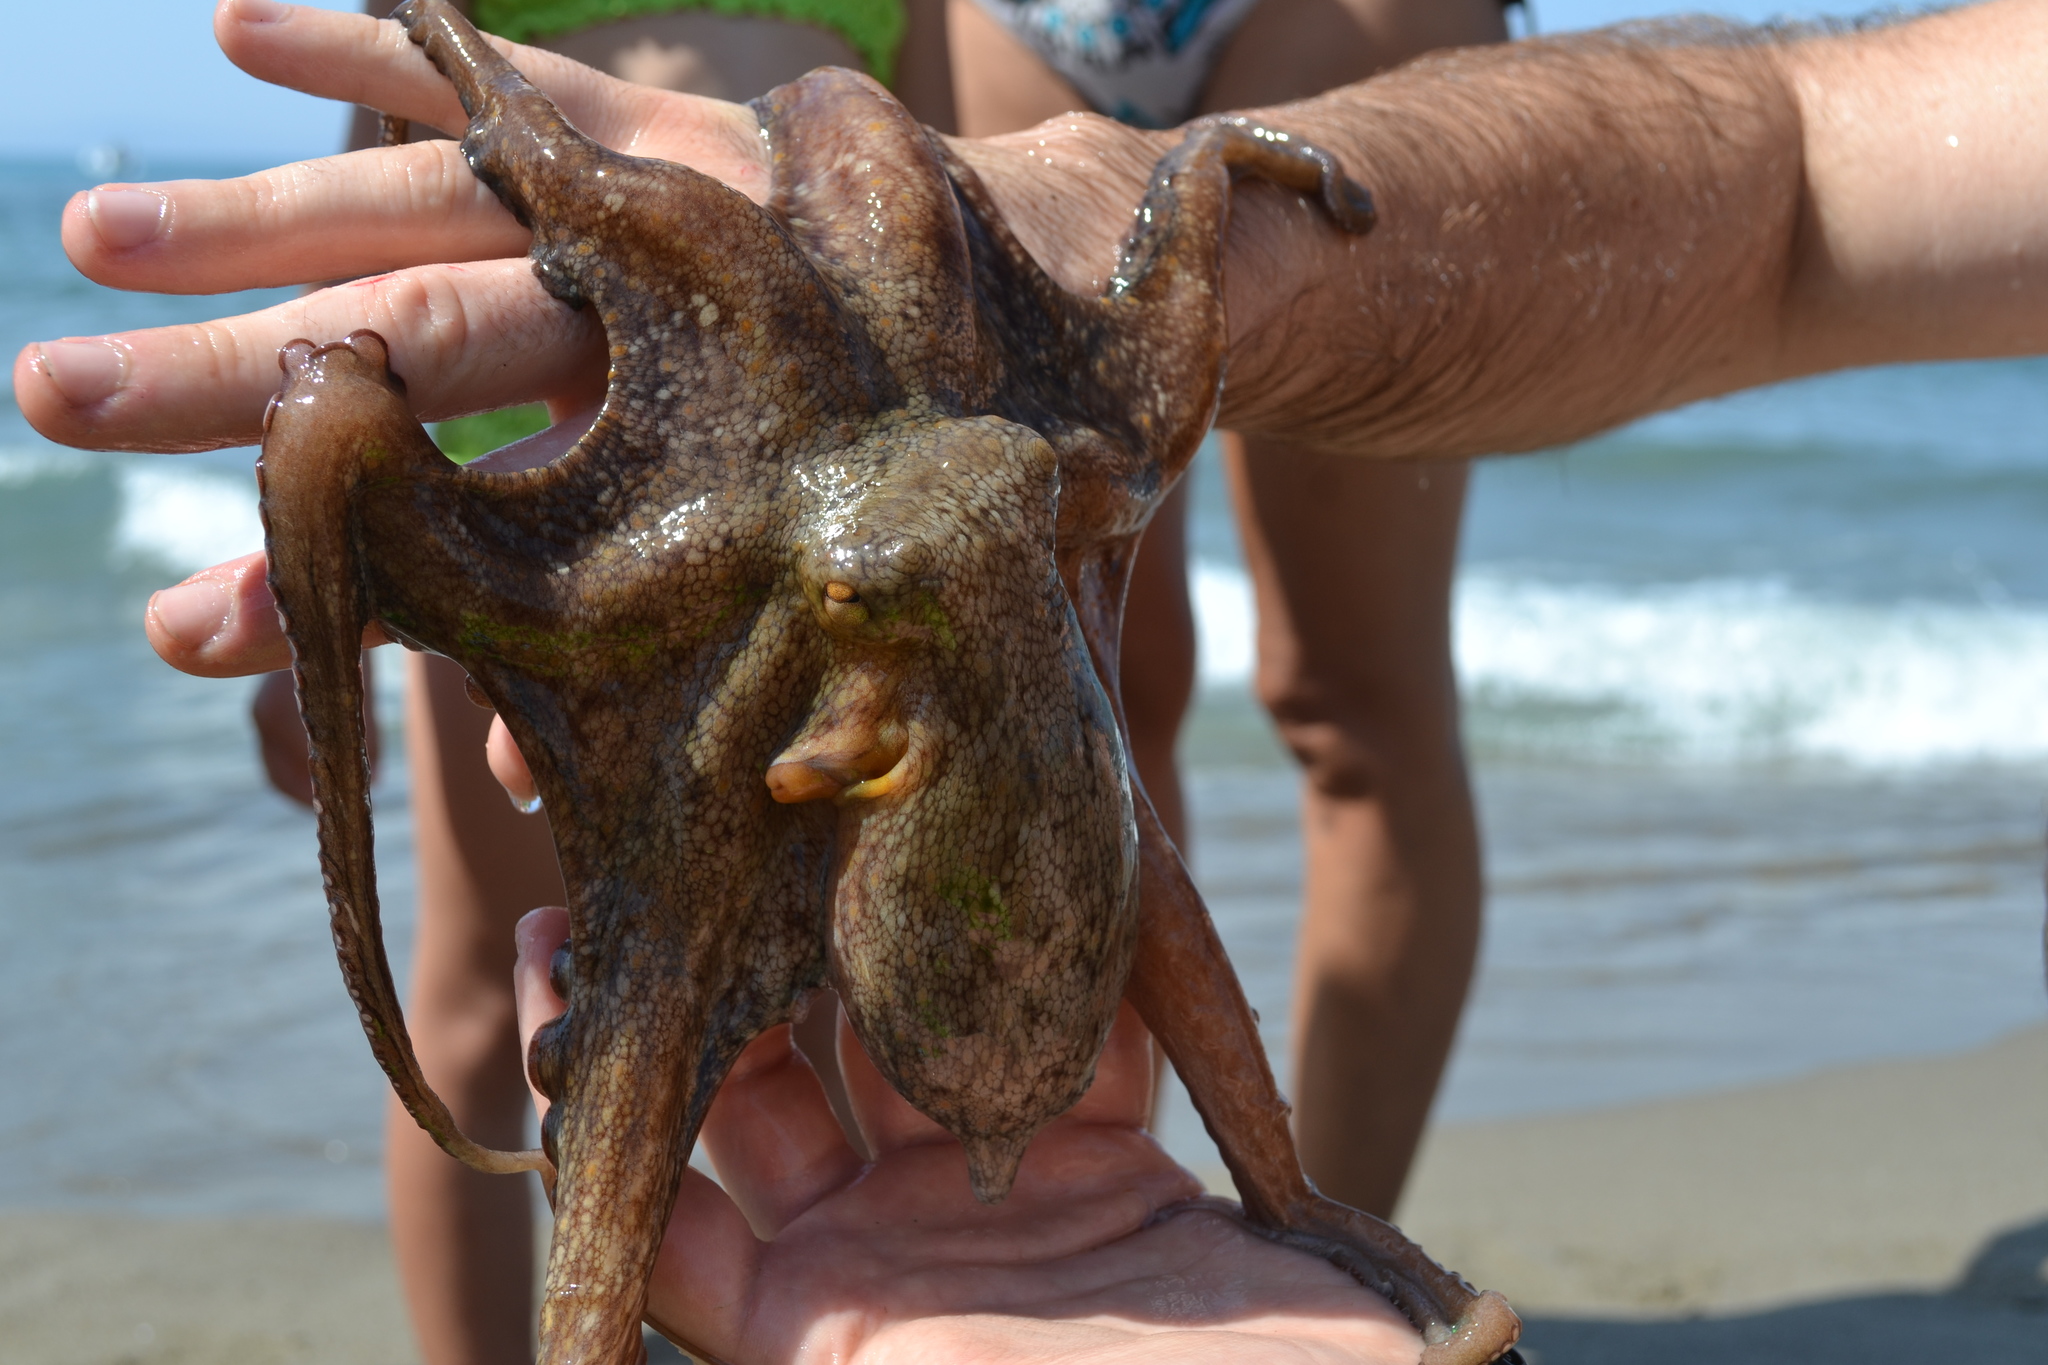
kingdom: Animalia
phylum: Mollusca
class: Cephalopoda
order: Octopoda
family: Octopodidae
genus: Octopus
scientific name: Octopus vulgaris
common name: Common octopus
